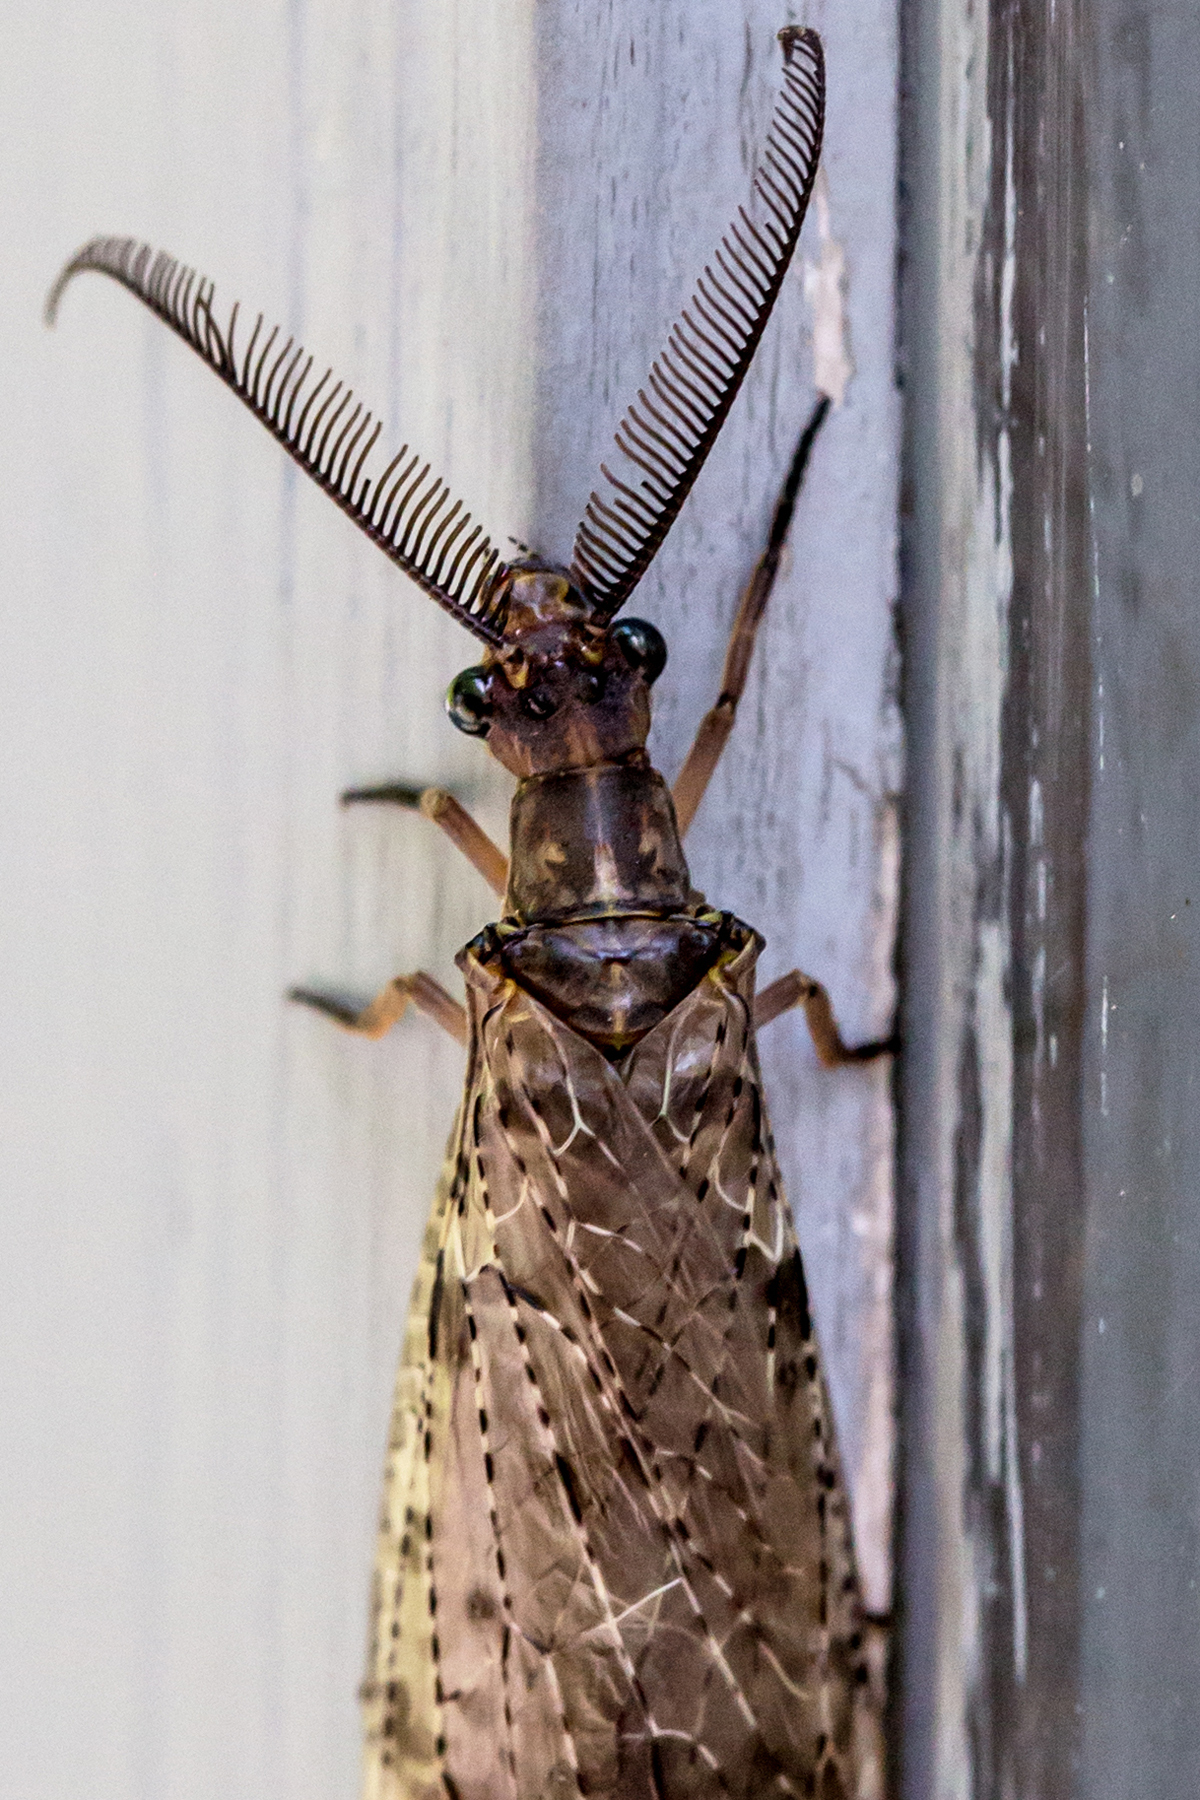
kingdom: Animalia
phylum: Arthropoda
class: Insecta
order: Megaloptera
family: Corydalidae
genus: Chauliodes
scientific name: Chauliodes pectinicornis
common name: Summer fishfly
